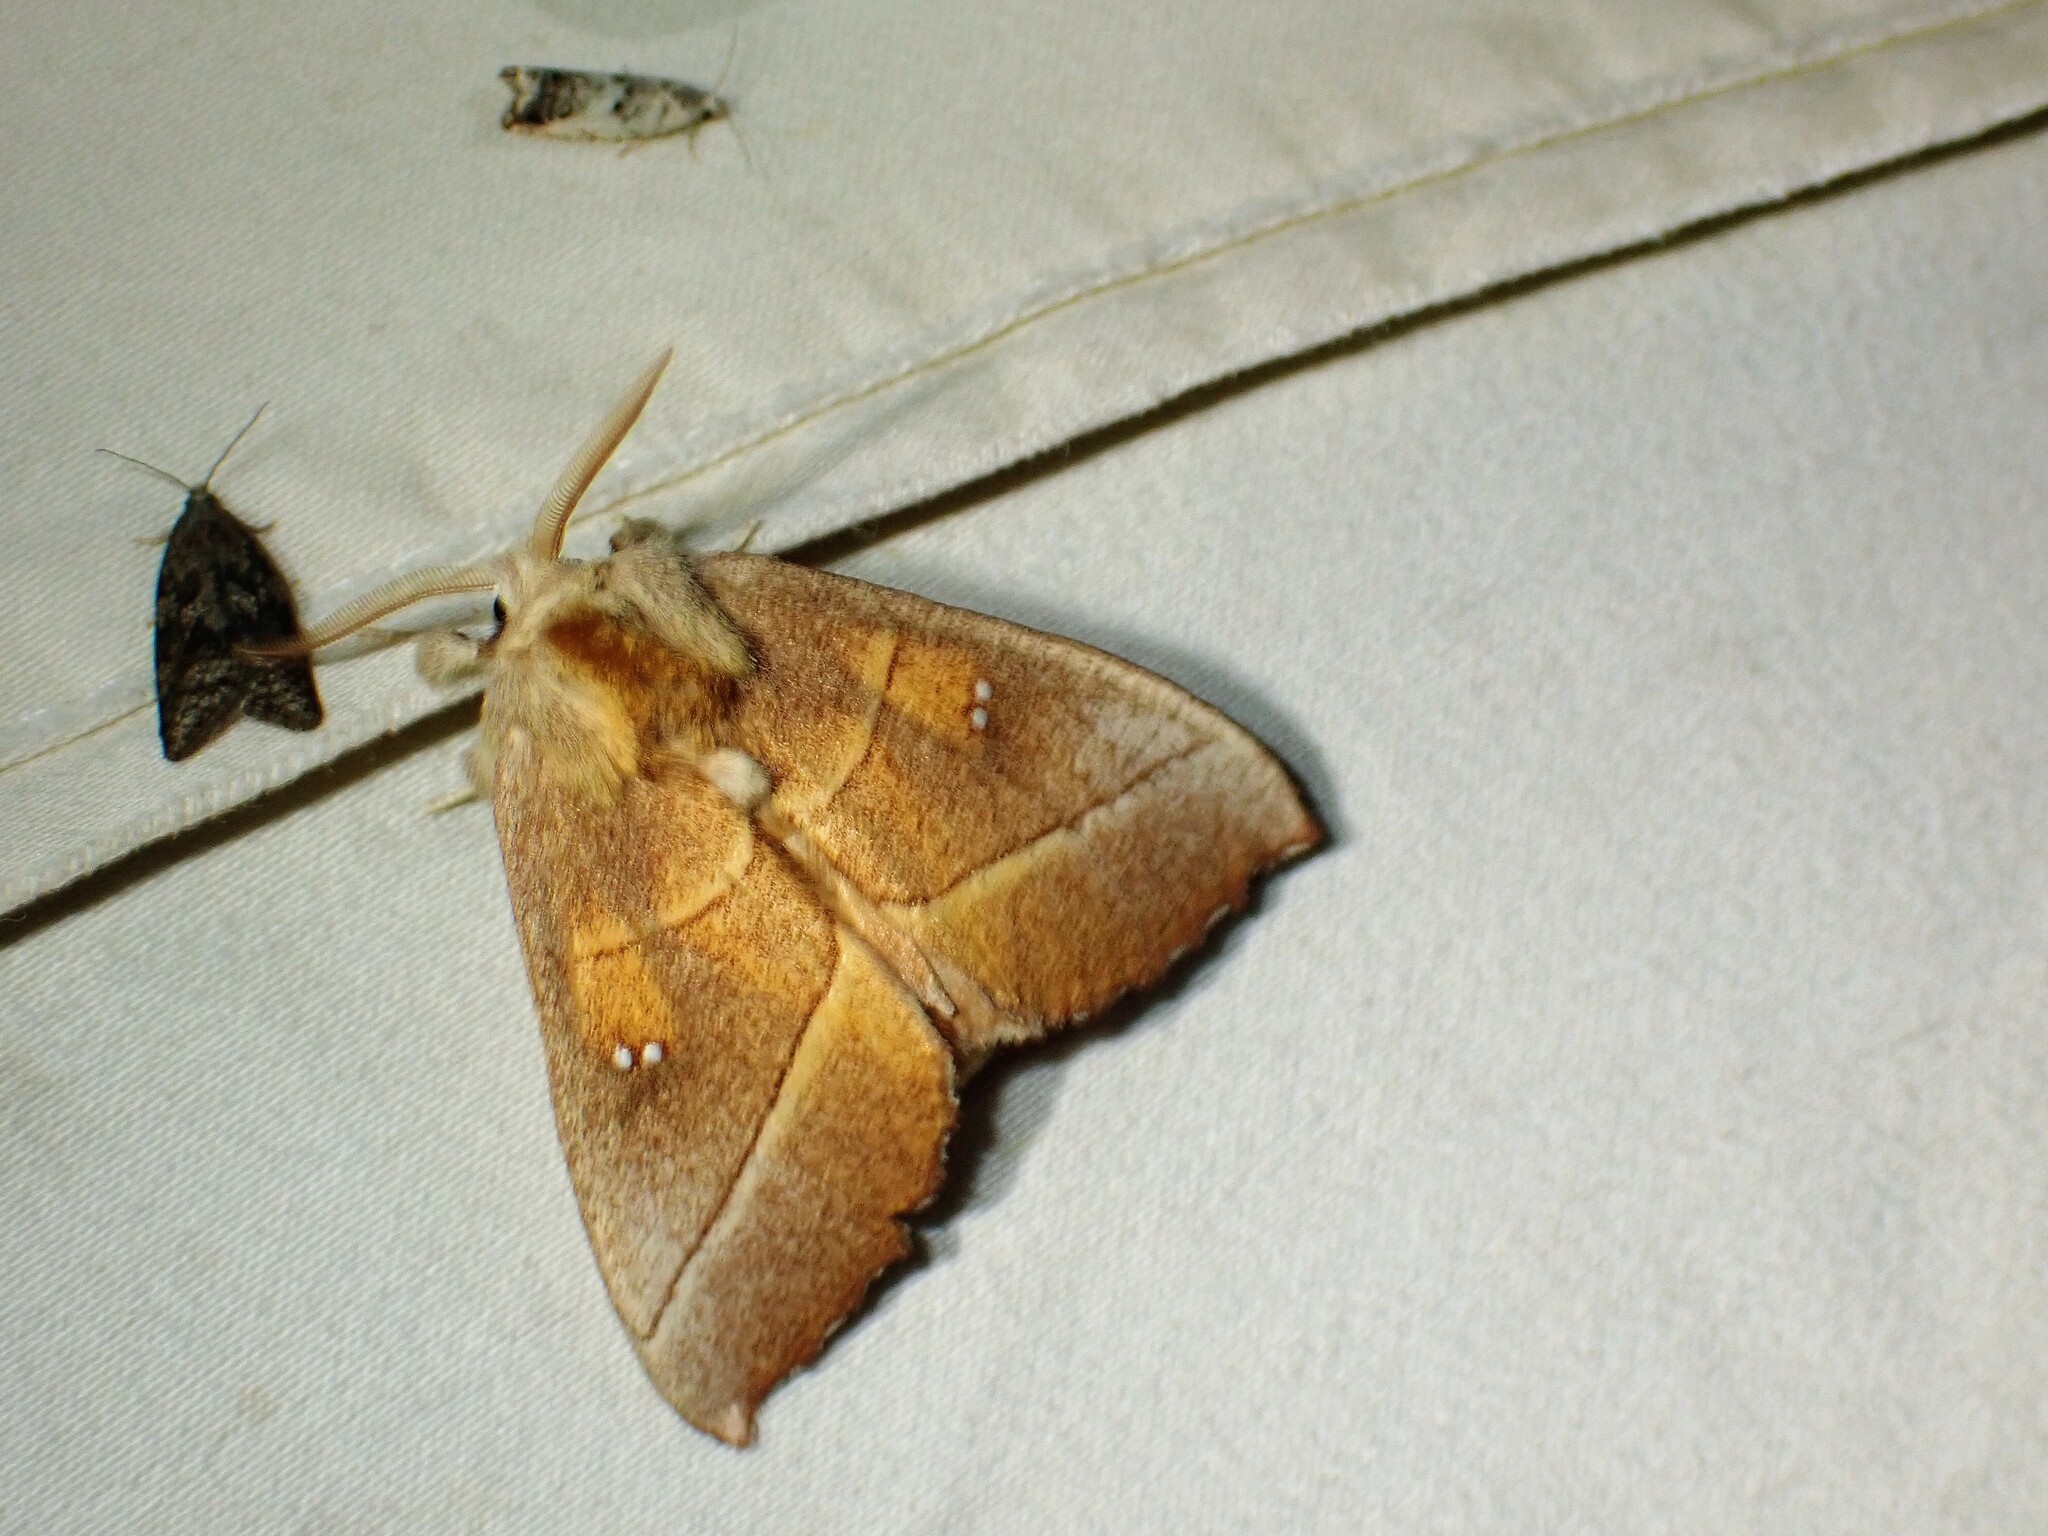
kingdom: Animalia
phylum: Arthropoda
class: Insecta
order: Lepidoptera
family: Notodontidae
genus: Nadata
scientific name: Nadata gibbosa
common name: White-dotted prominent
